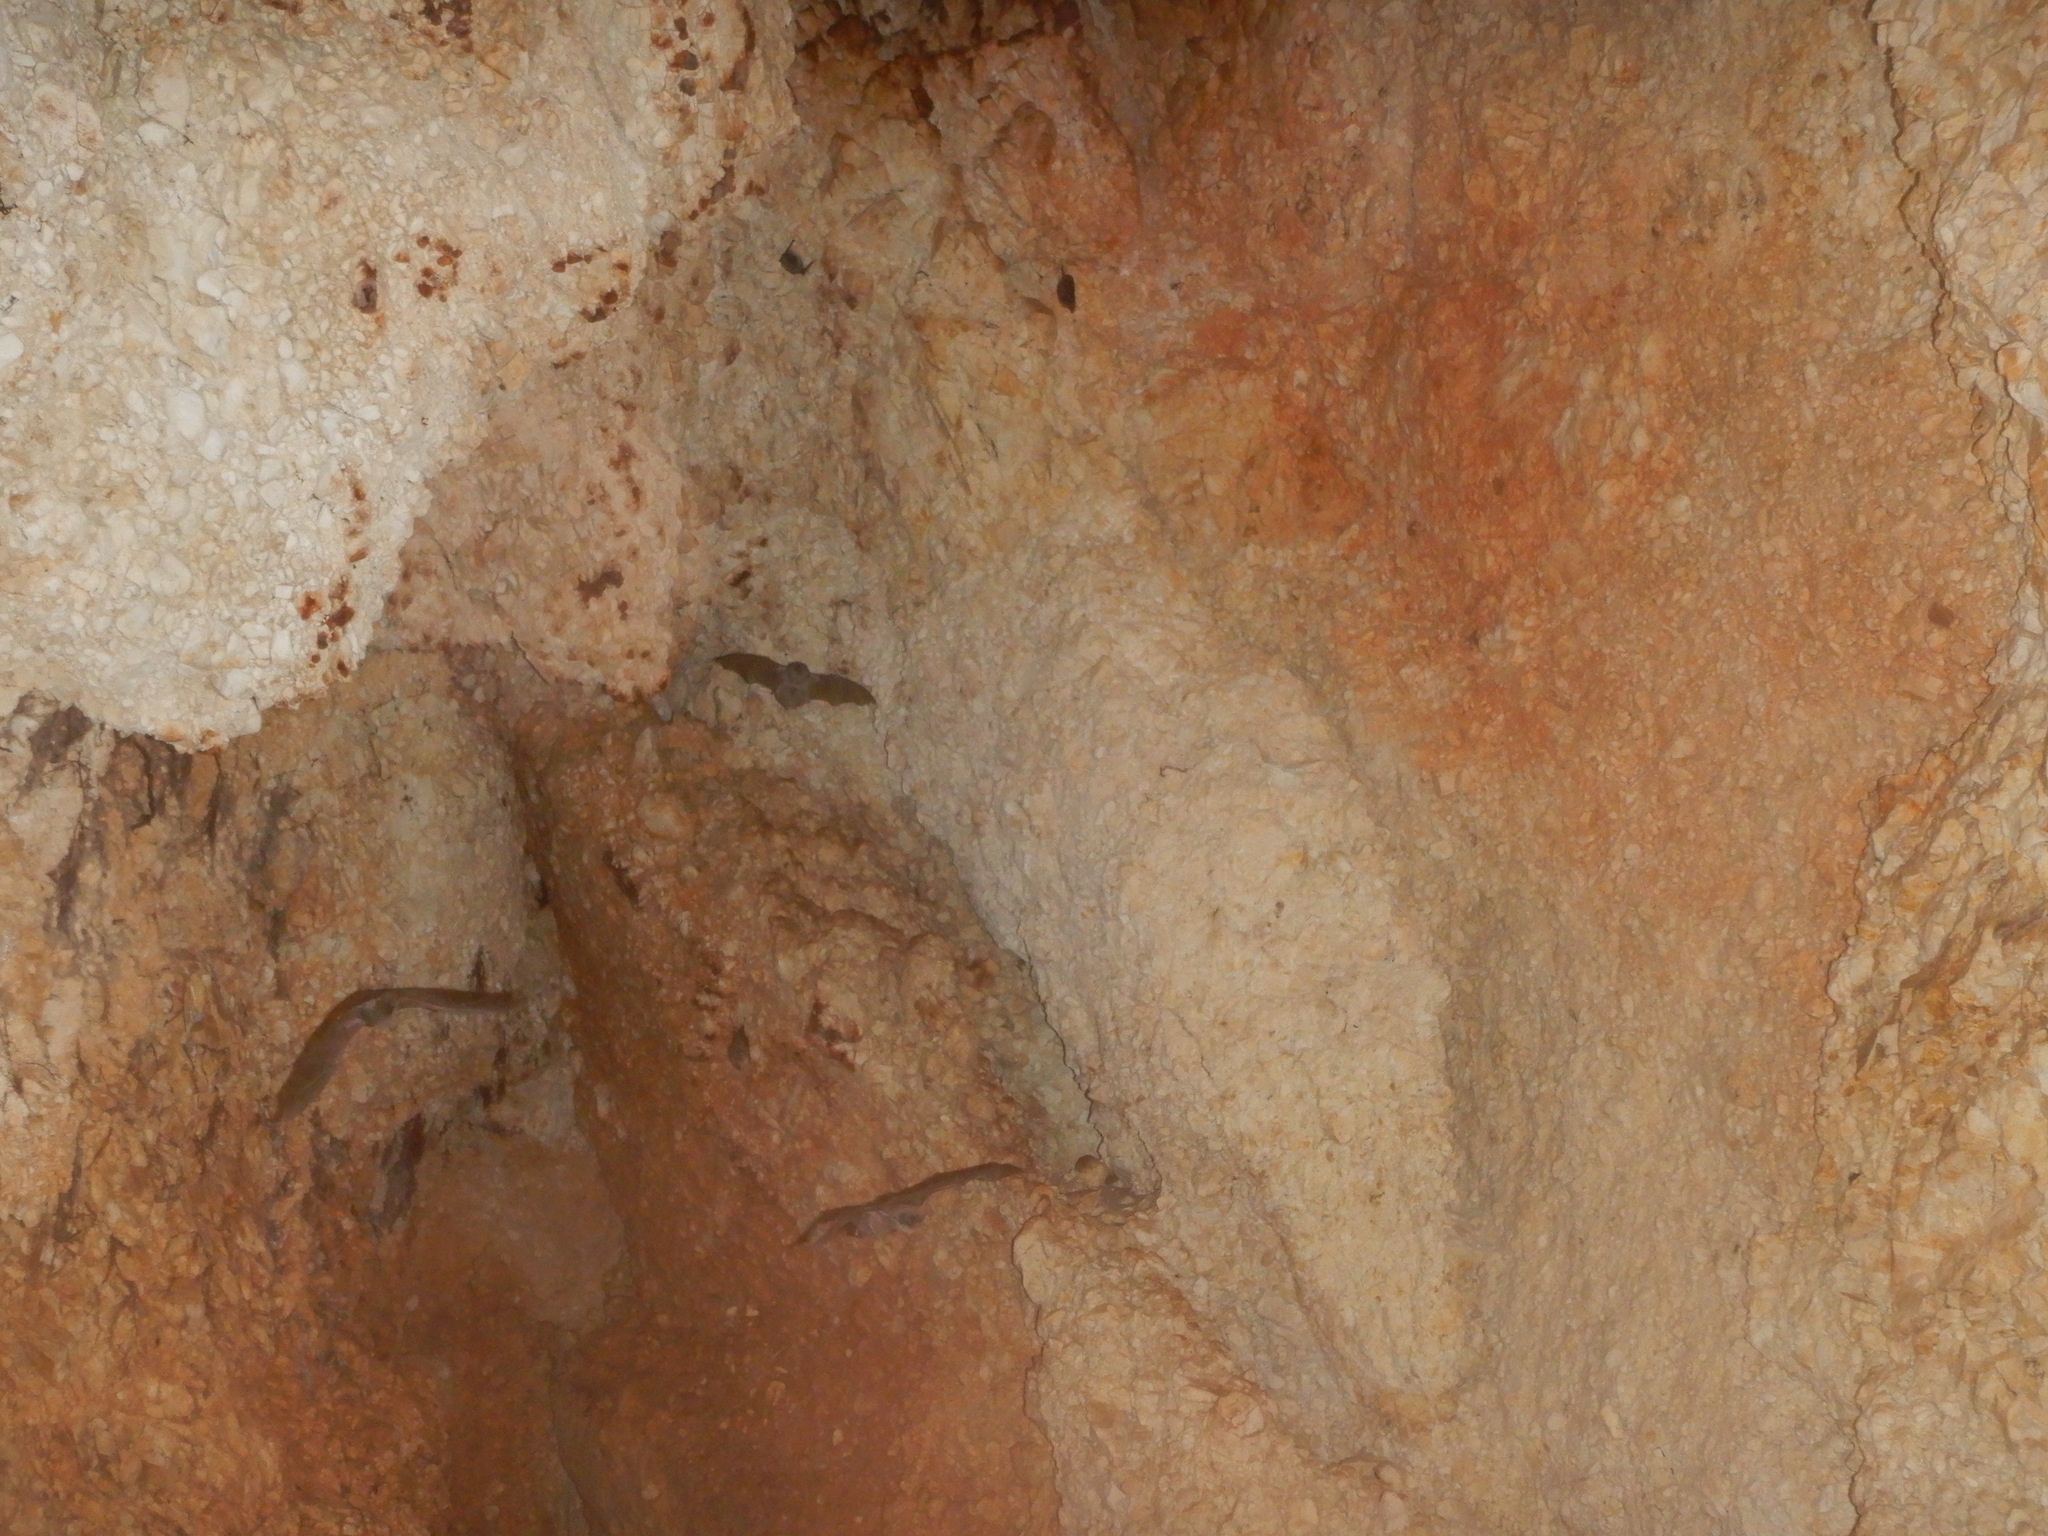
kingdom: Animalia
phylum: Chordata
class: Mammalia
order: Chiroptera
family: Miniopteridae
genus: Miniopterus
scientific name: Miniopterus schreibersii
